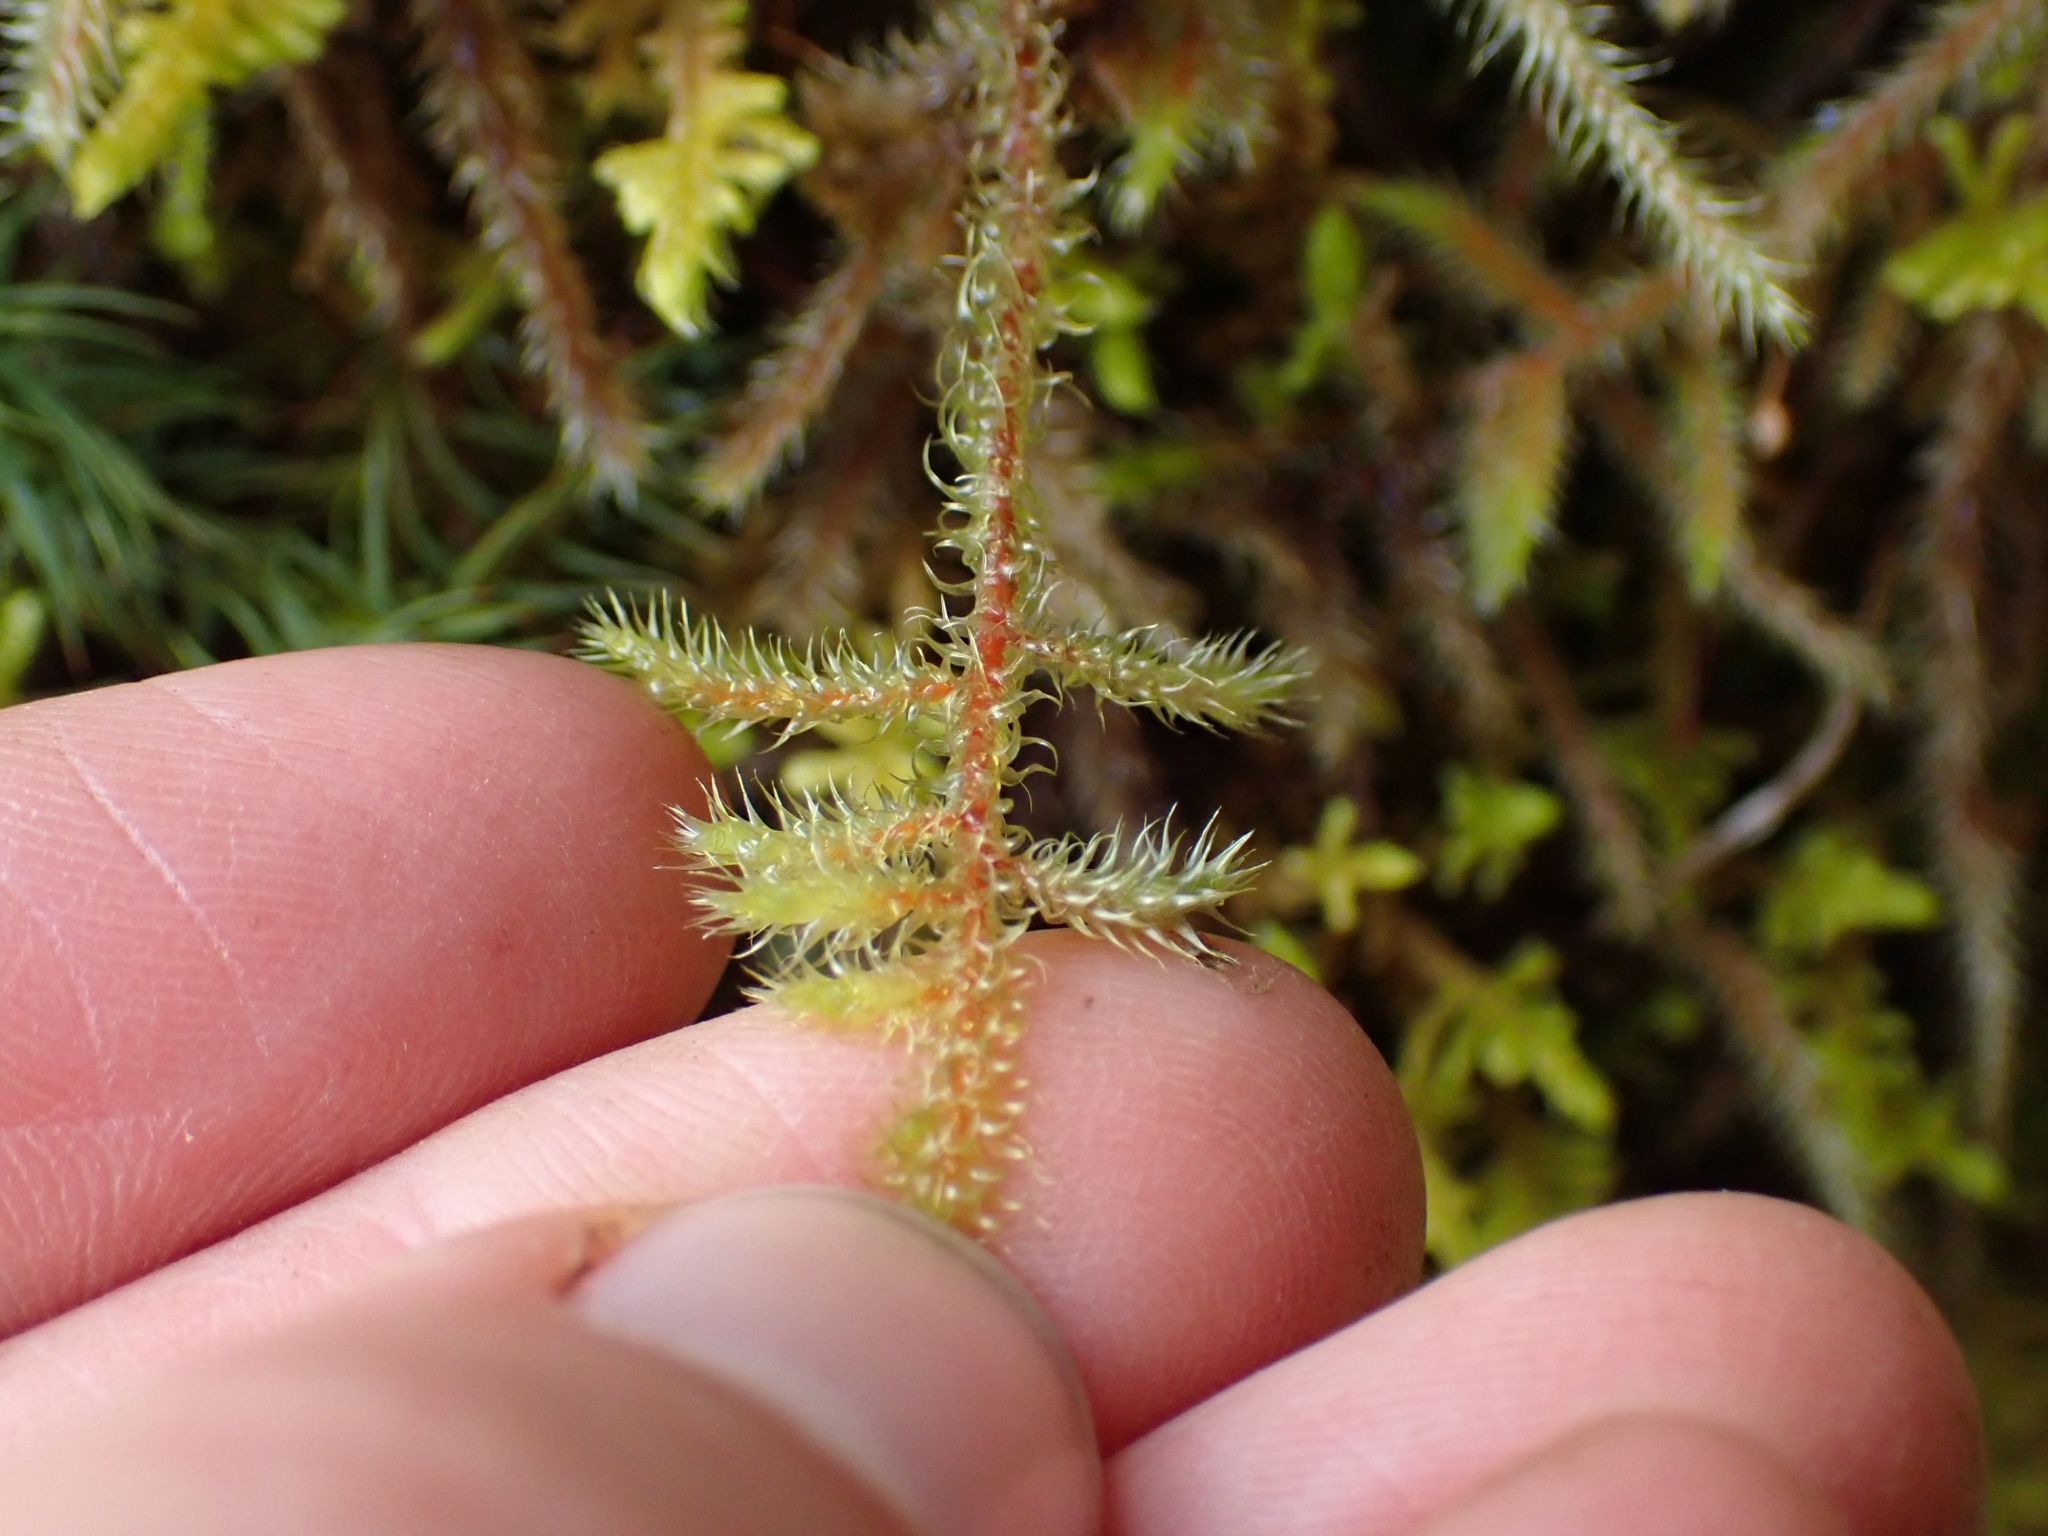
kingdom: Plantae
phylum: Bryophyta
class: Bryopsida
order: Hypnales
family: Hylocomiaceae
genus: Rhytidiadelphus
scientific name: Rhytidiadelphus loreus
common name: Lanky moss
